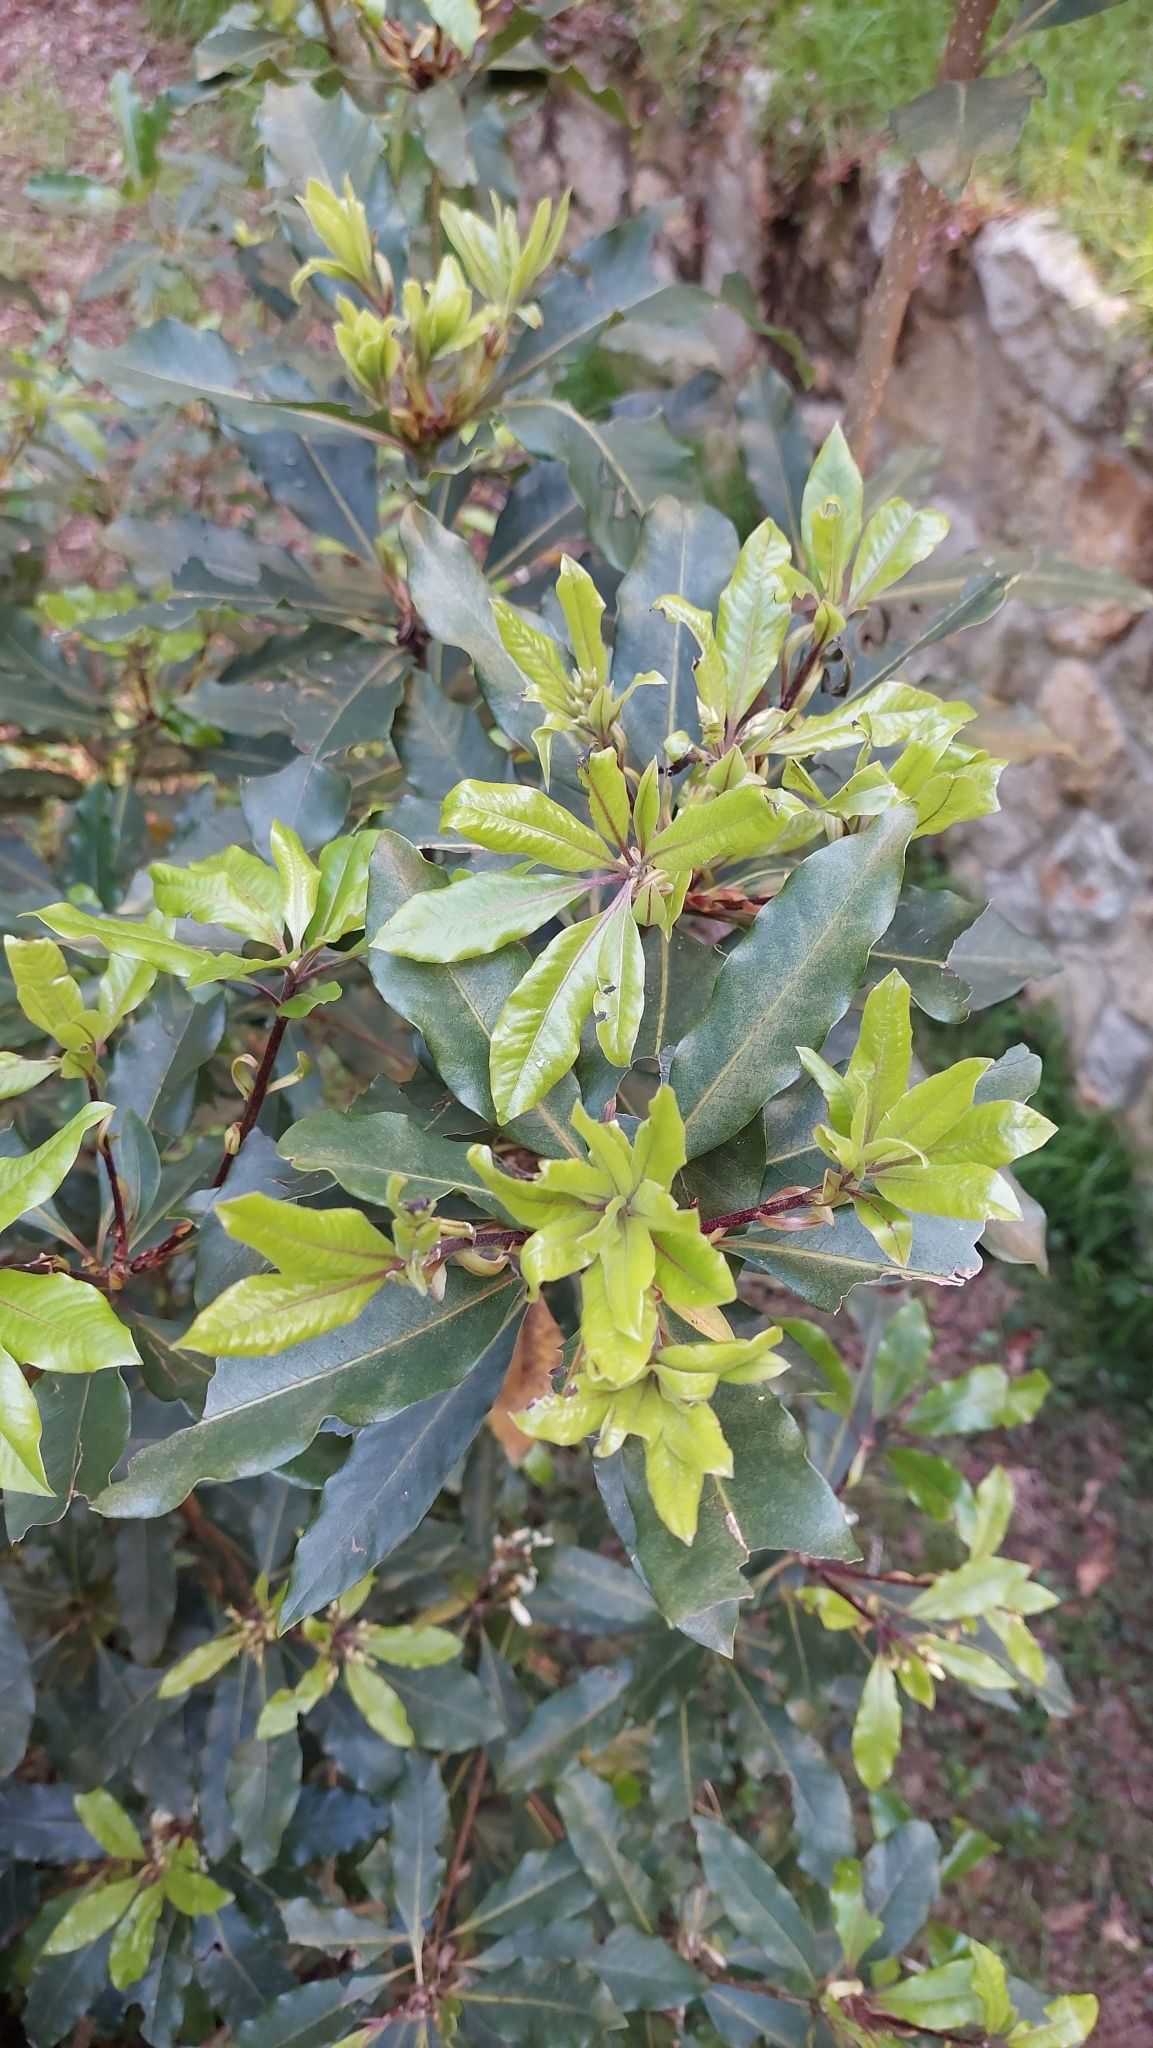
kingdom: Plantae
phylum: Tracheophyta
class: Magnoliopsida
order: Apiales
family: Pittosporaceae
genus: Pittosporum
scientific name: Pittosporum undulatum
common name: Australian cheesewood
